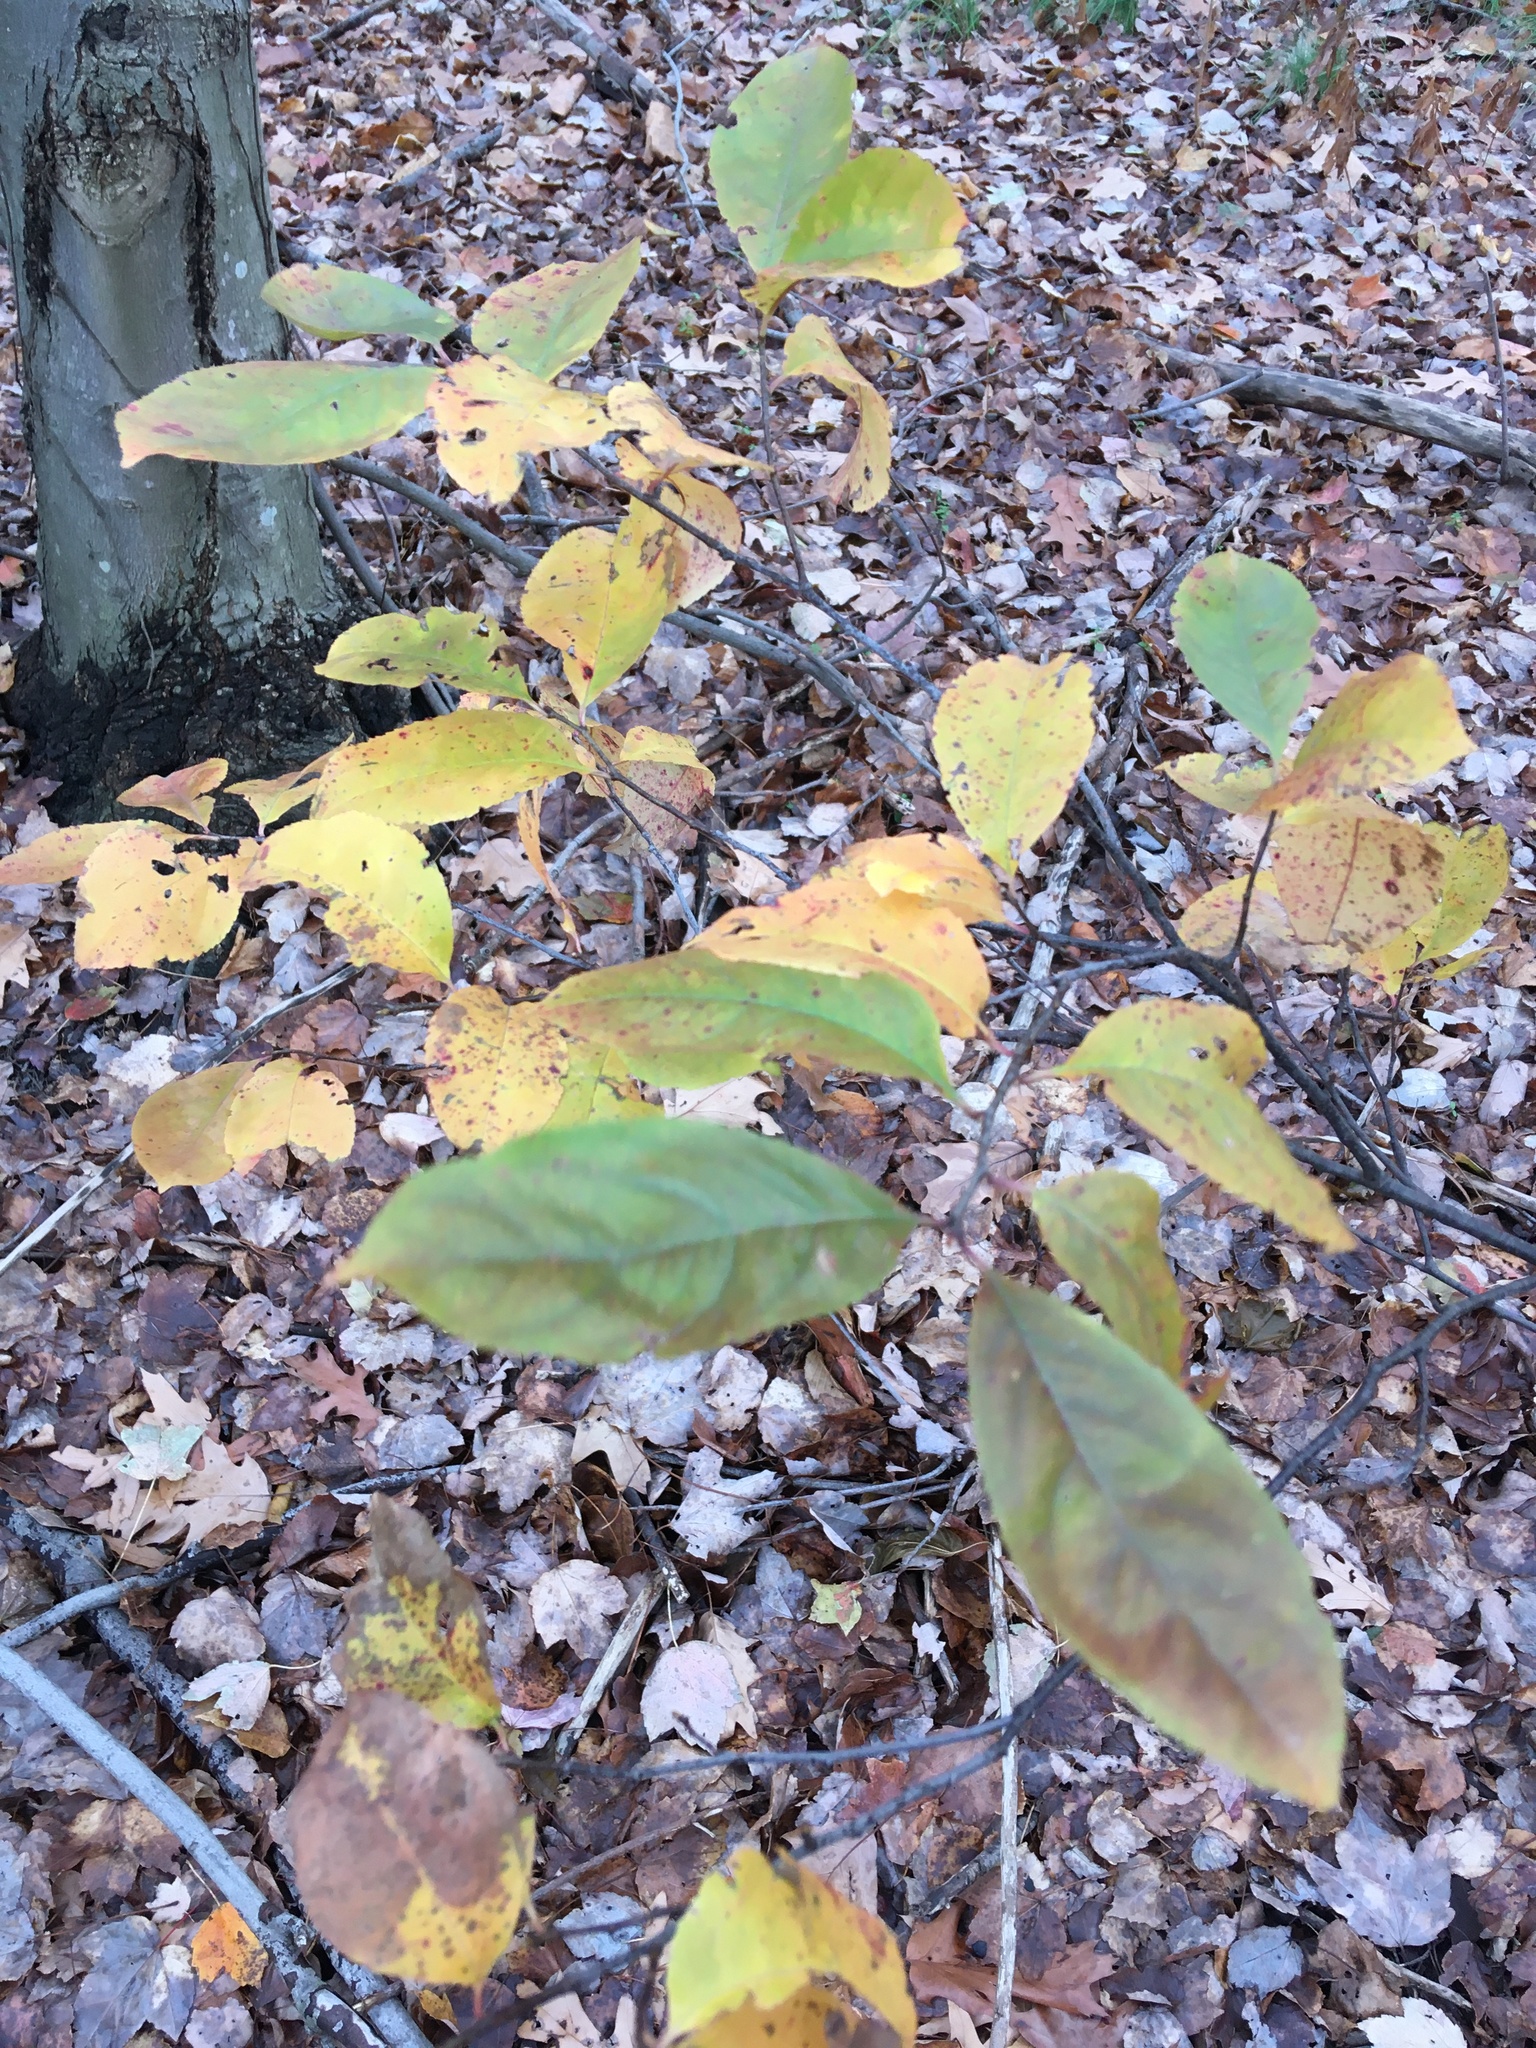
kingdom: Plantae
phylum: Tracheophyta
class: Magnoliopsida
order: Rosales
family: Rosaceae
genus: Prunus
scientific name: Prunus serotina
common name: Black cherry
